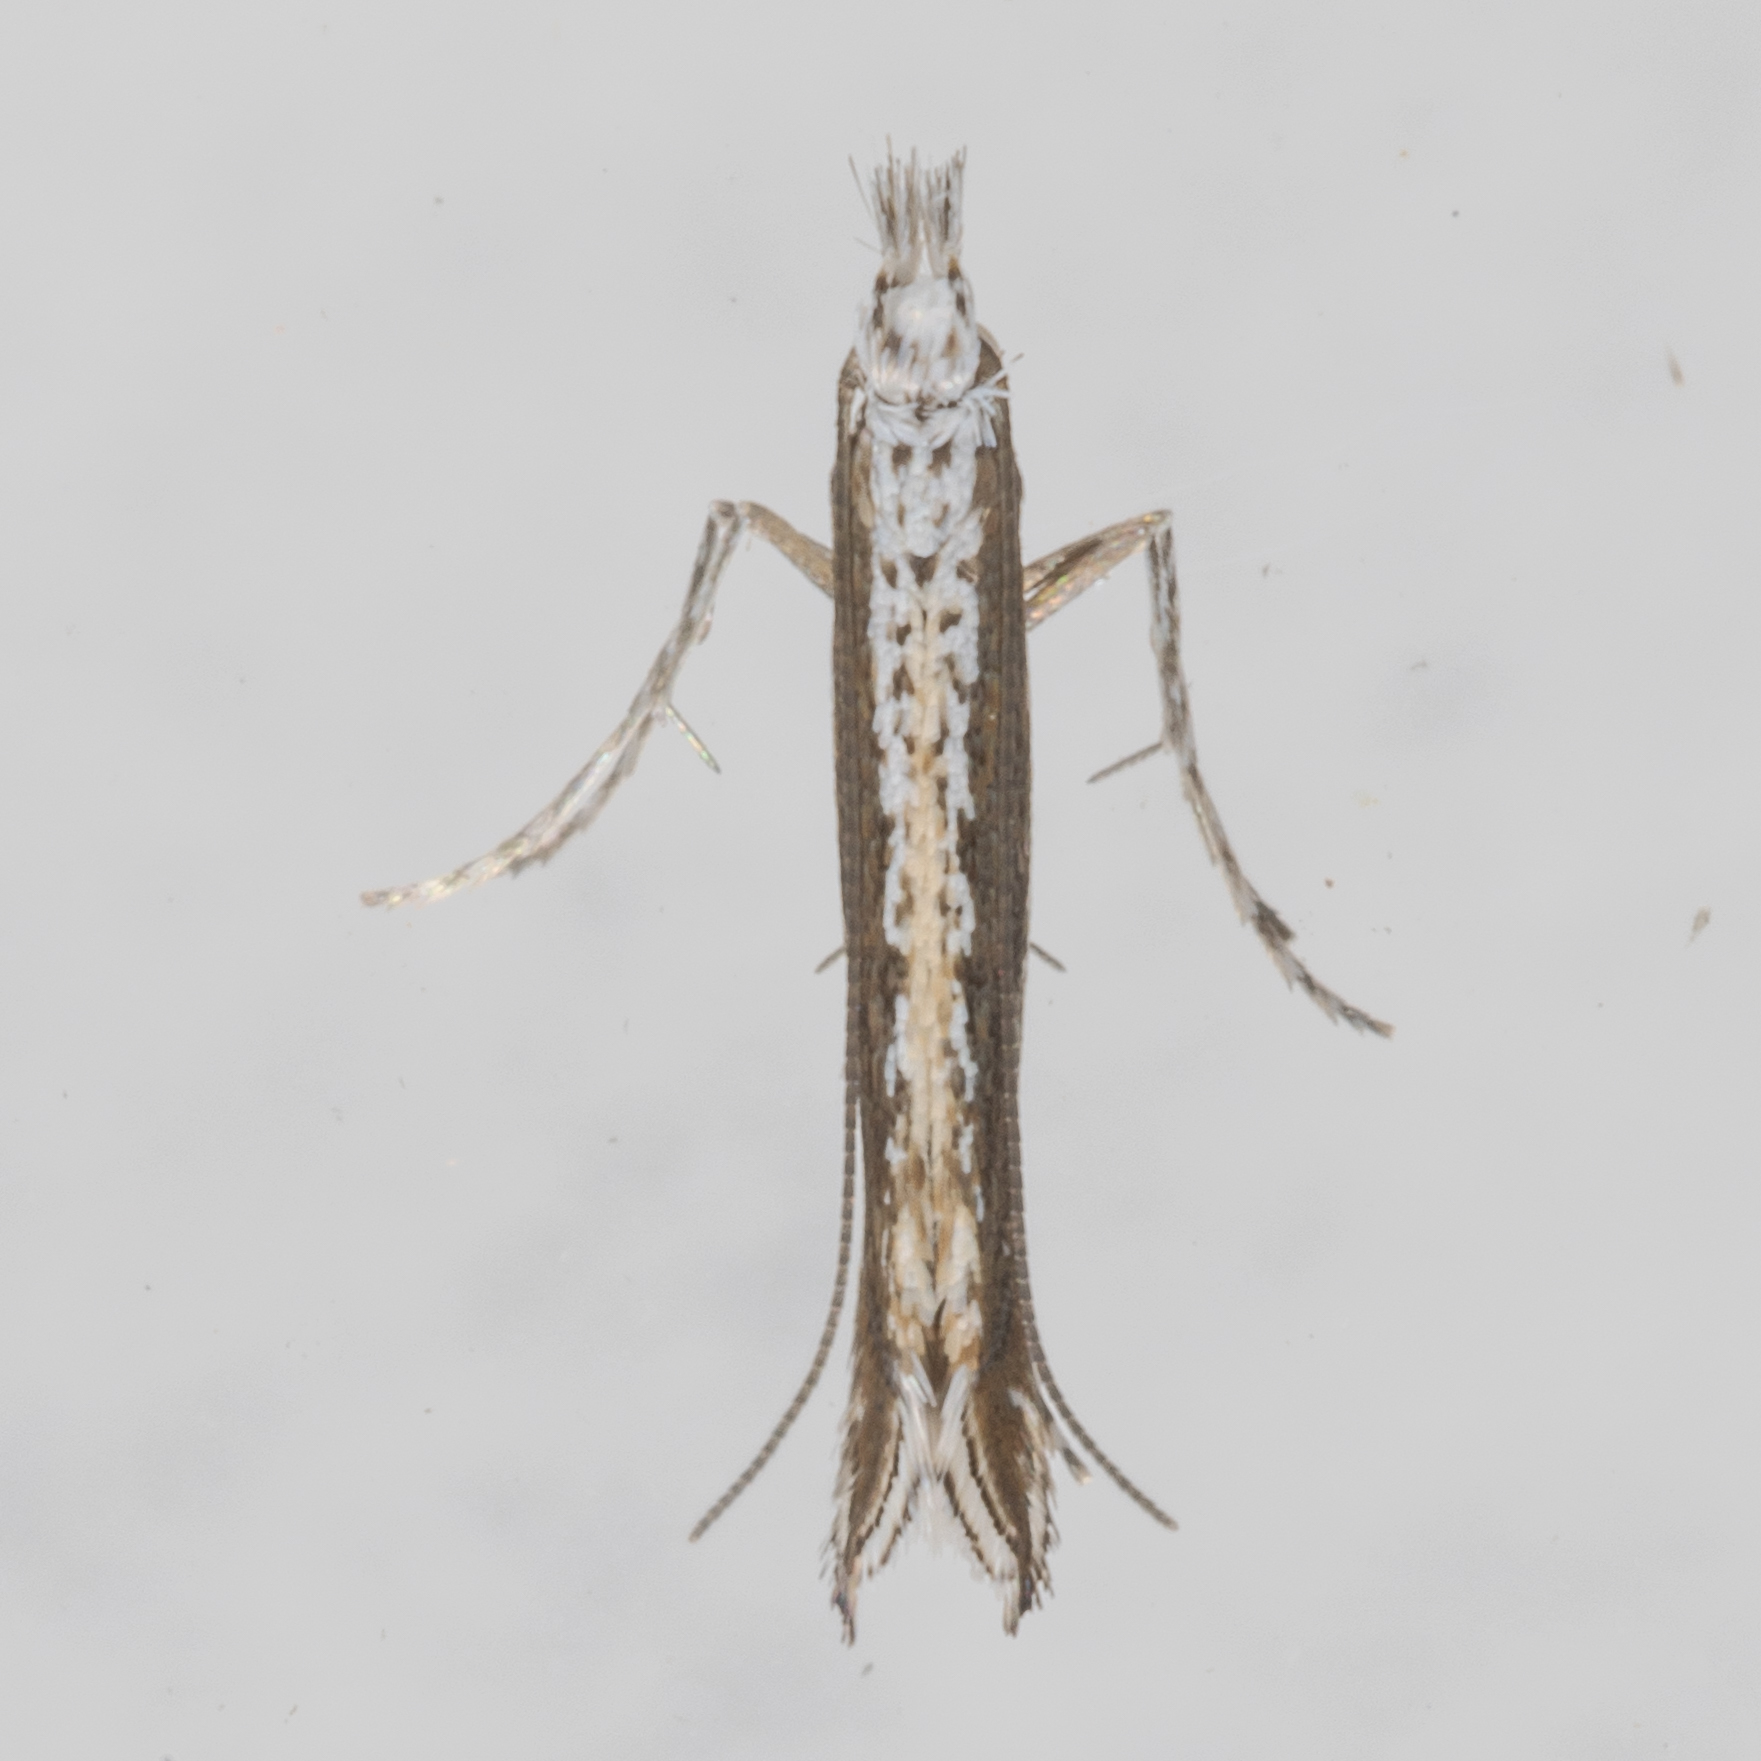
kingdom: Plantae
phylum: Rhodophyta
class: Florideophyceae
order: Gracilariales
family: Gracilariaceae
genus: Gracilaria
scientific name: Gracilaria
